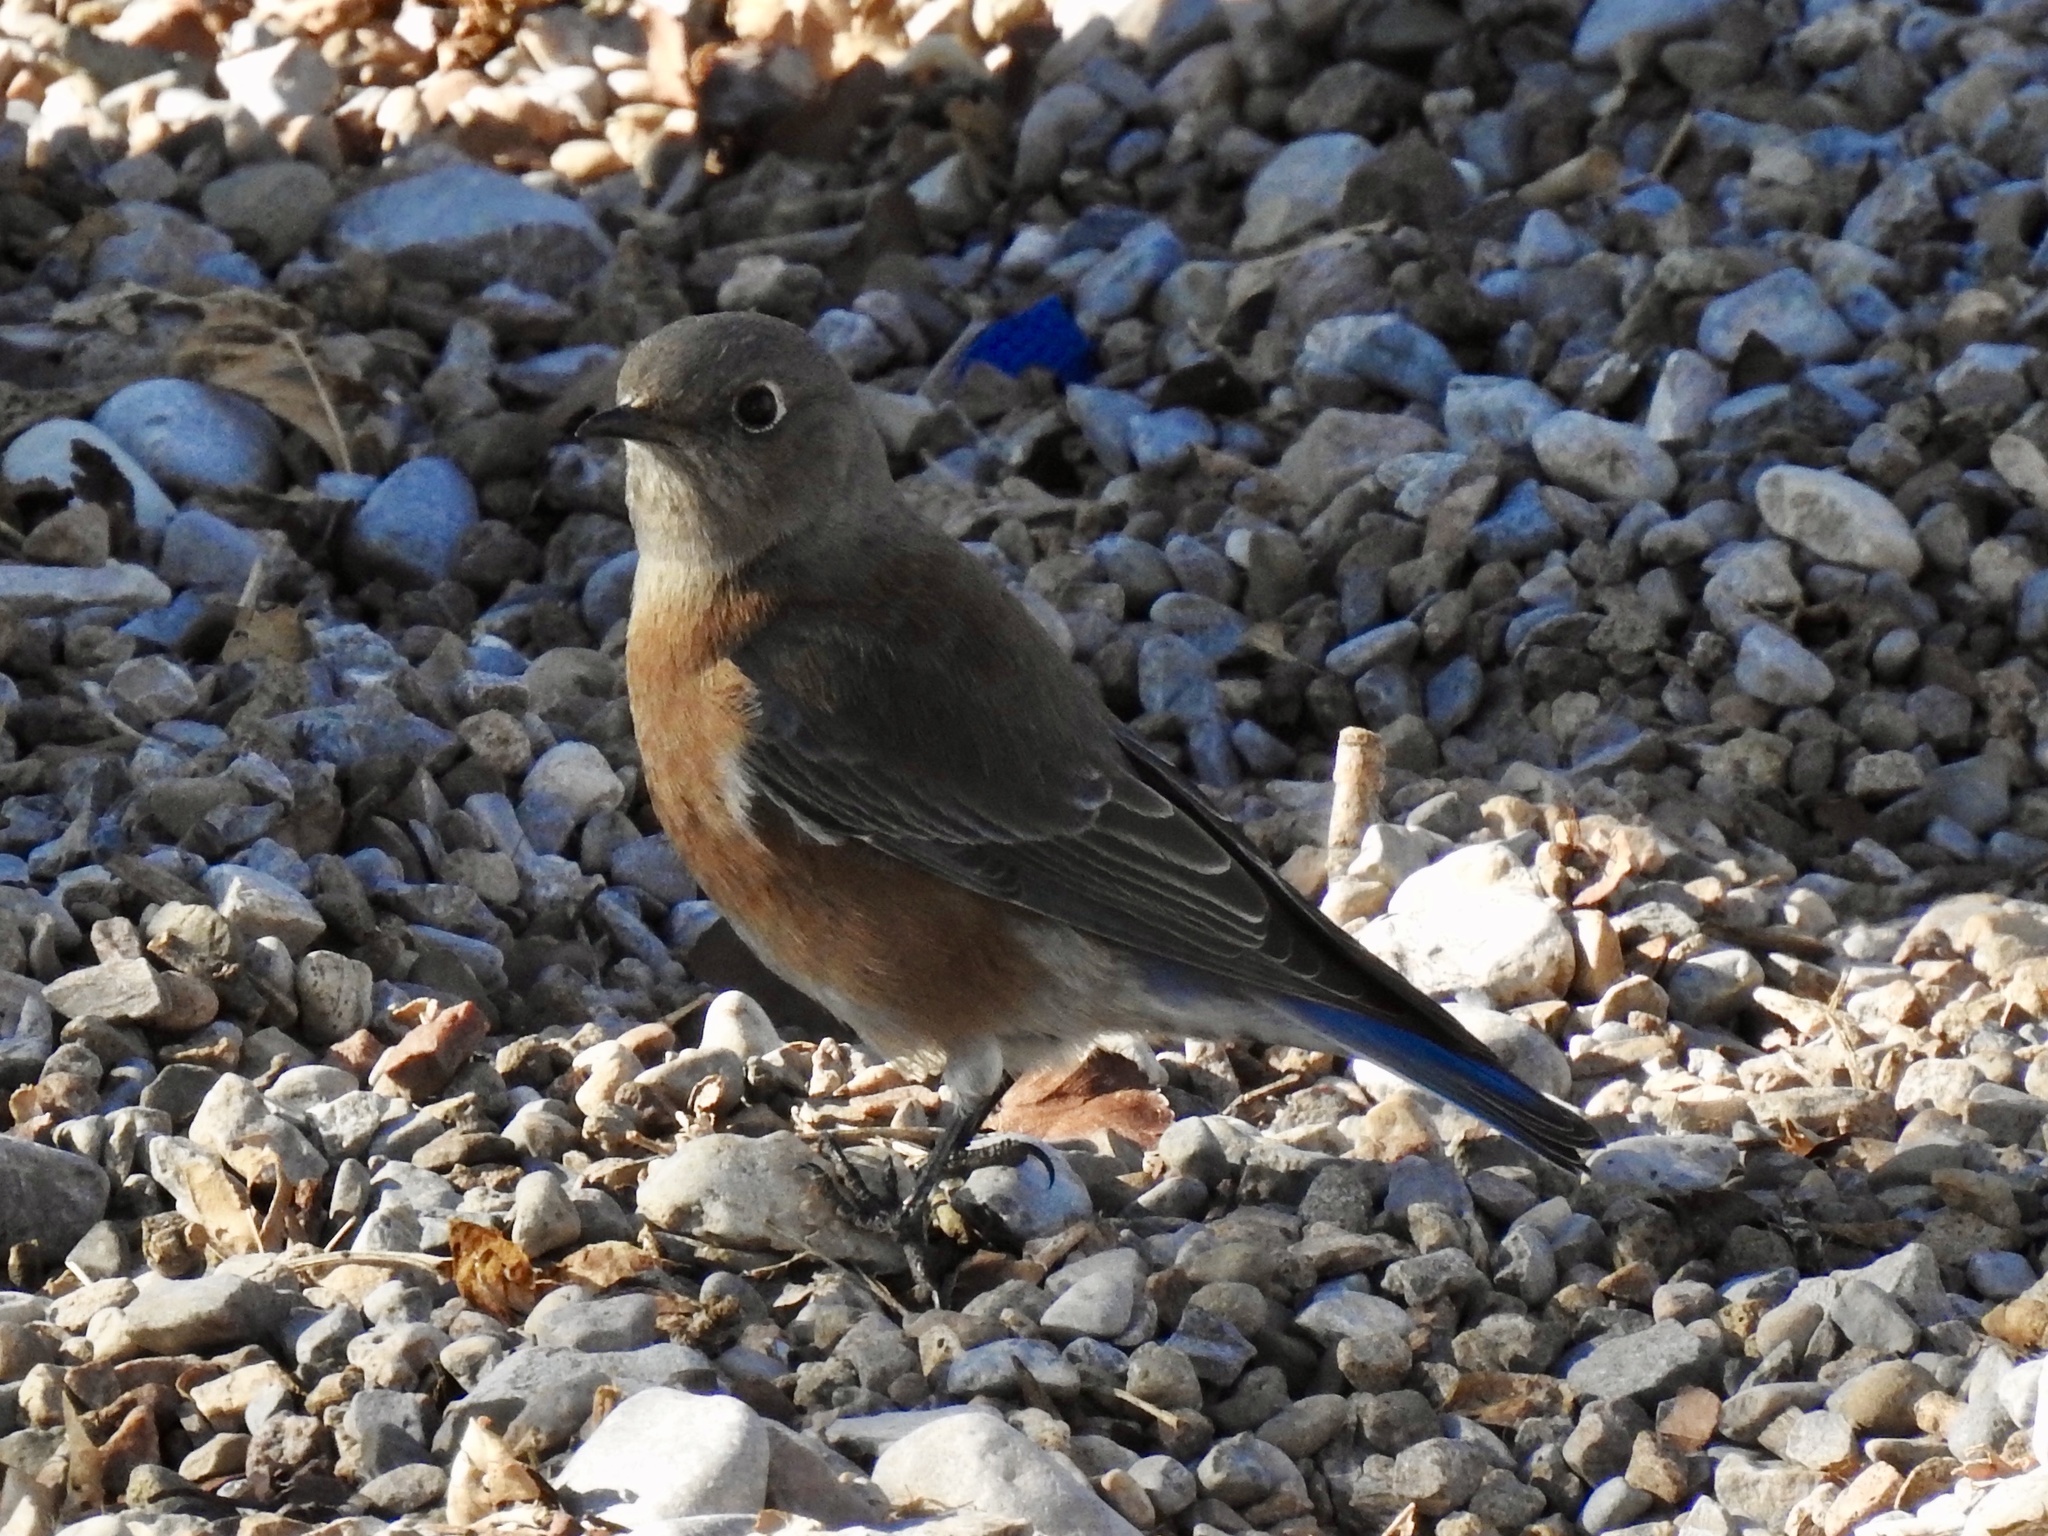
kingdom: Animalia
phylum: Chordata
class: Aves
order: Passeriformes
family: Turdidae
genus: Sialia
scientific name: Sialia mexicana
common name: Western bluebird
